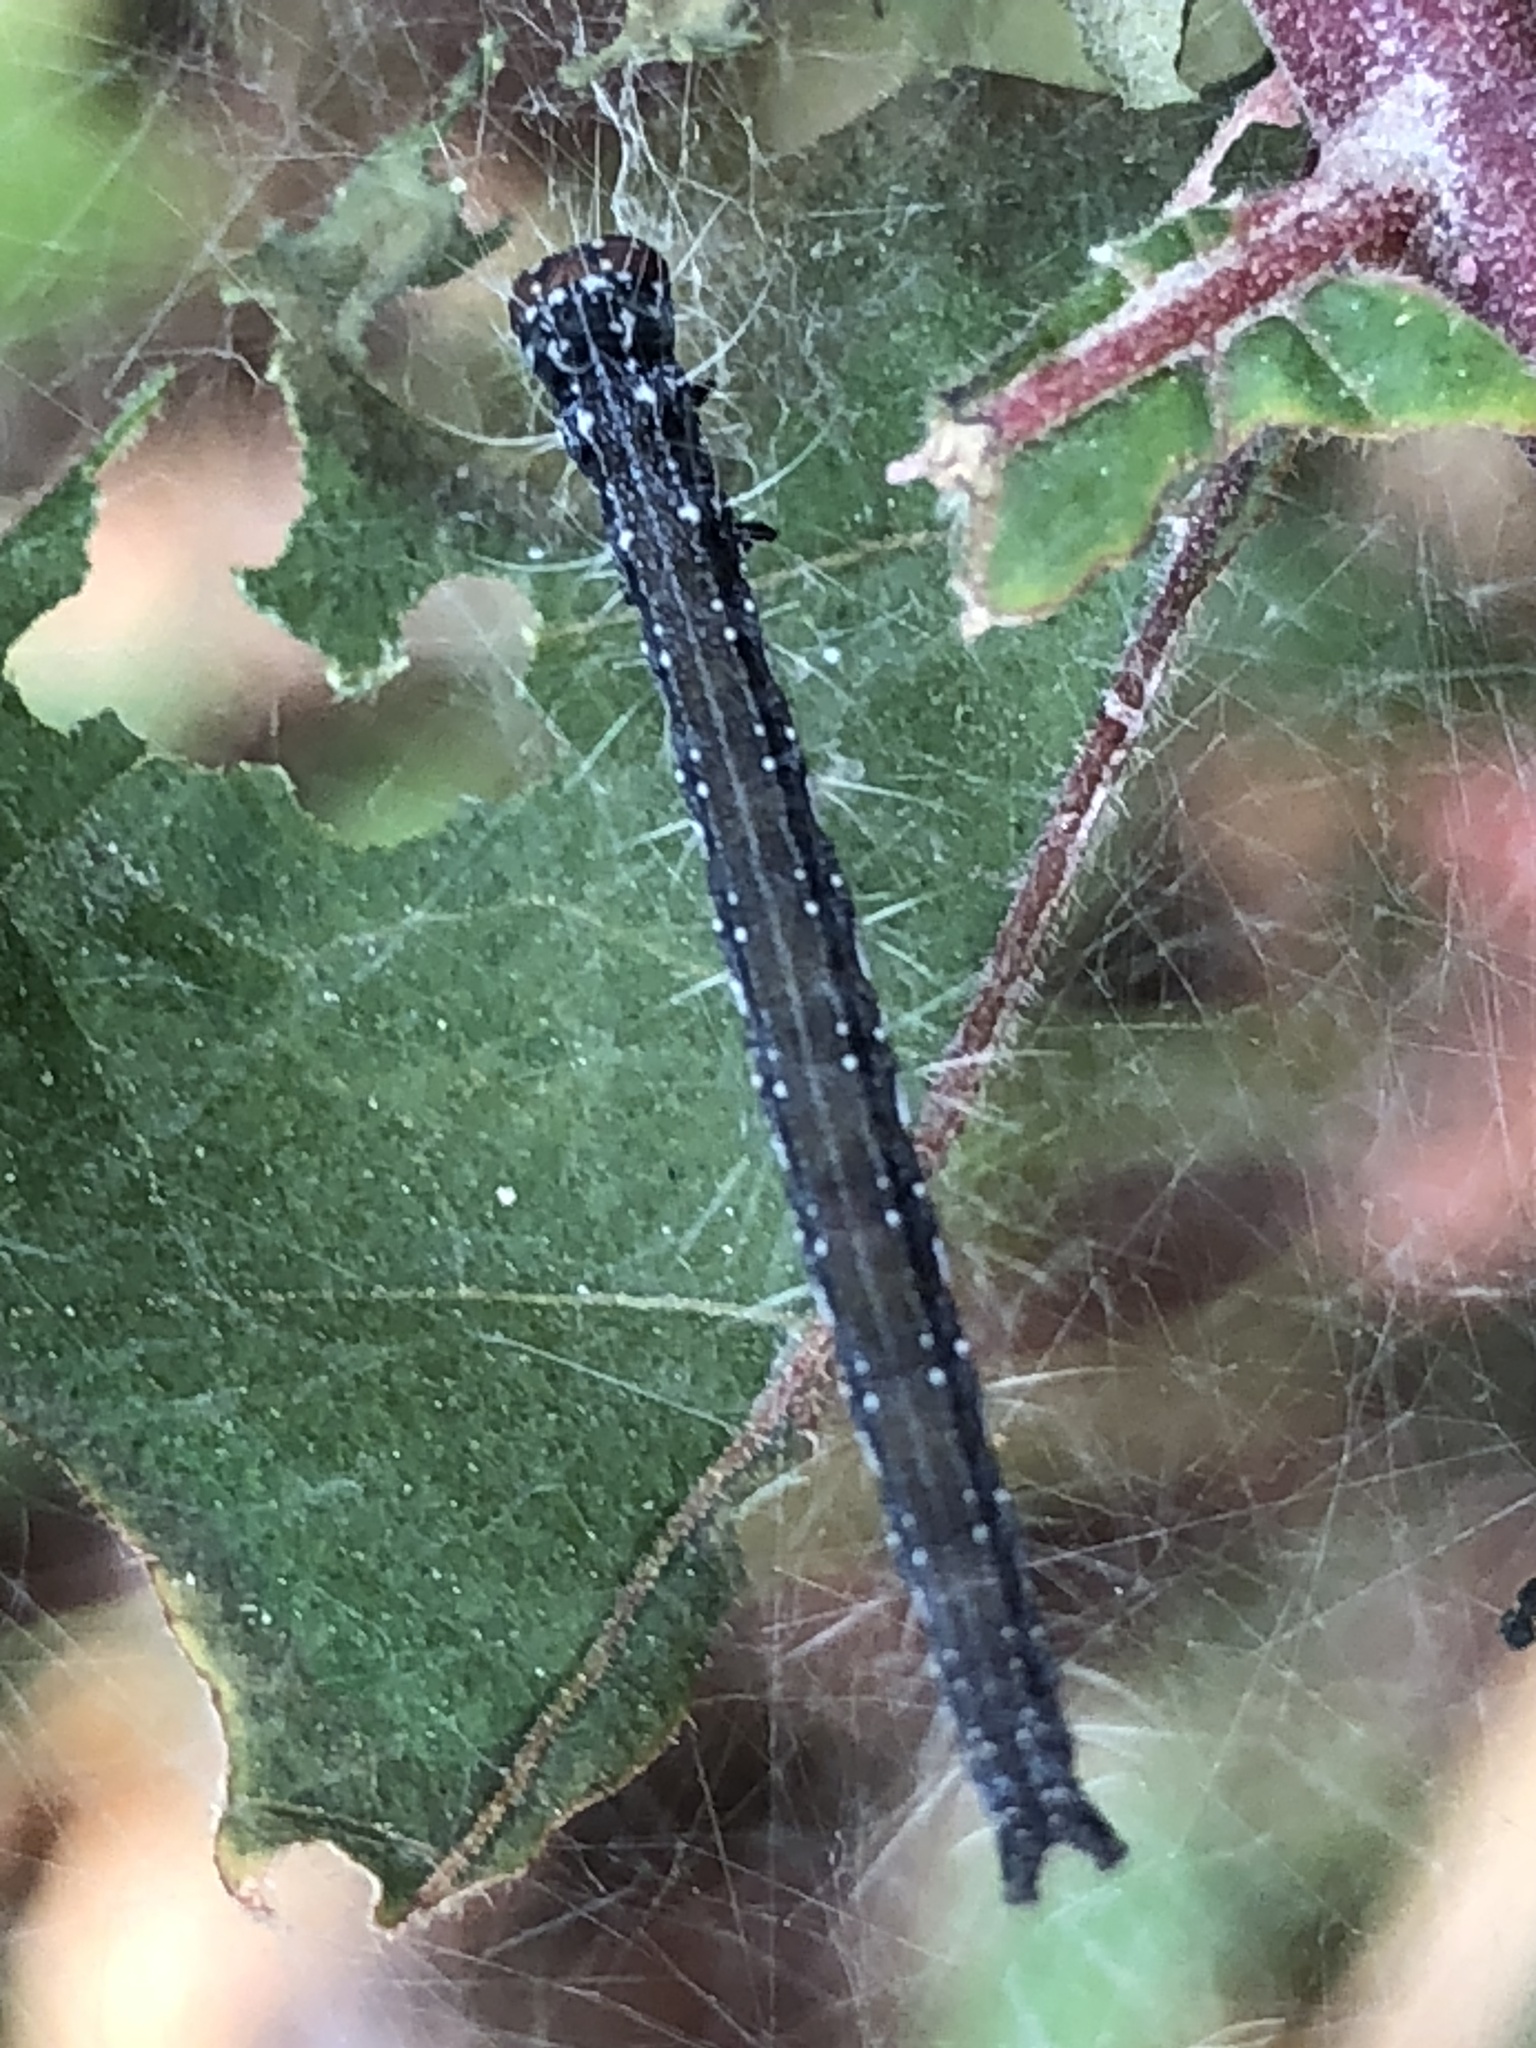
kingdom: Animalia
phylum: Arthropoda
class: Insecta
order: Lepidoptera
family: Attevidae
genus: Atteva
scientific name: Atteva punctella
